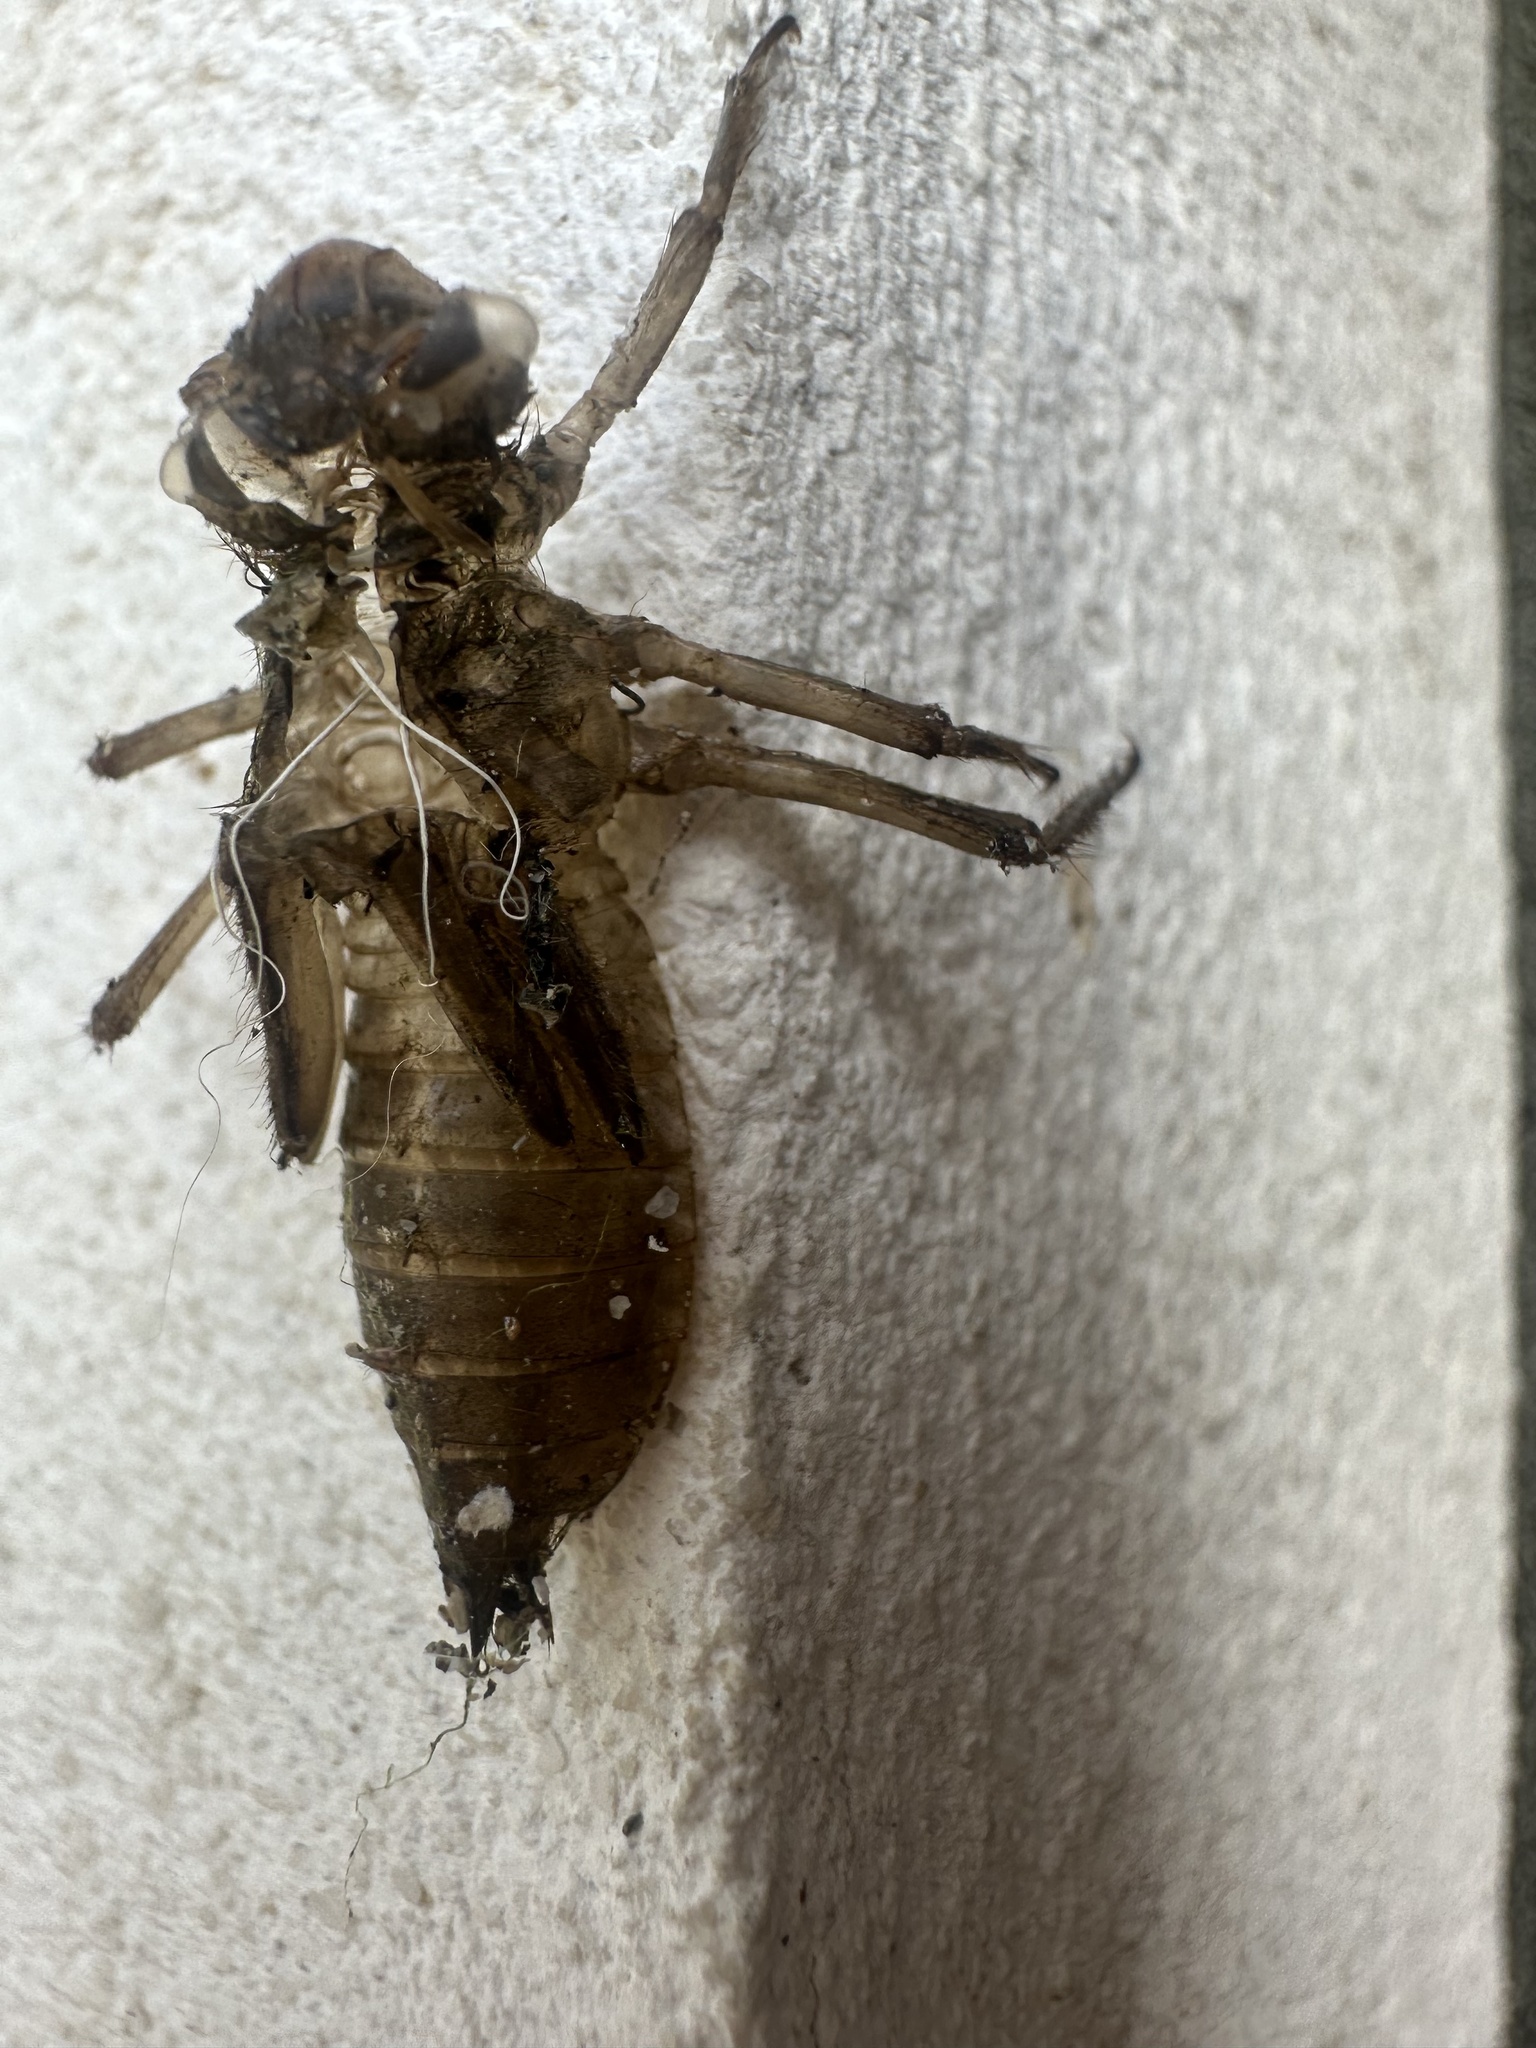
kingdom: Animalia
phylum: Arthropoda
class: Insecta
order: Odonata
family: Libellulidae
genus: Libellula
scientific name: Libellula quadrimaculata
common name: Four-spotted chaser
